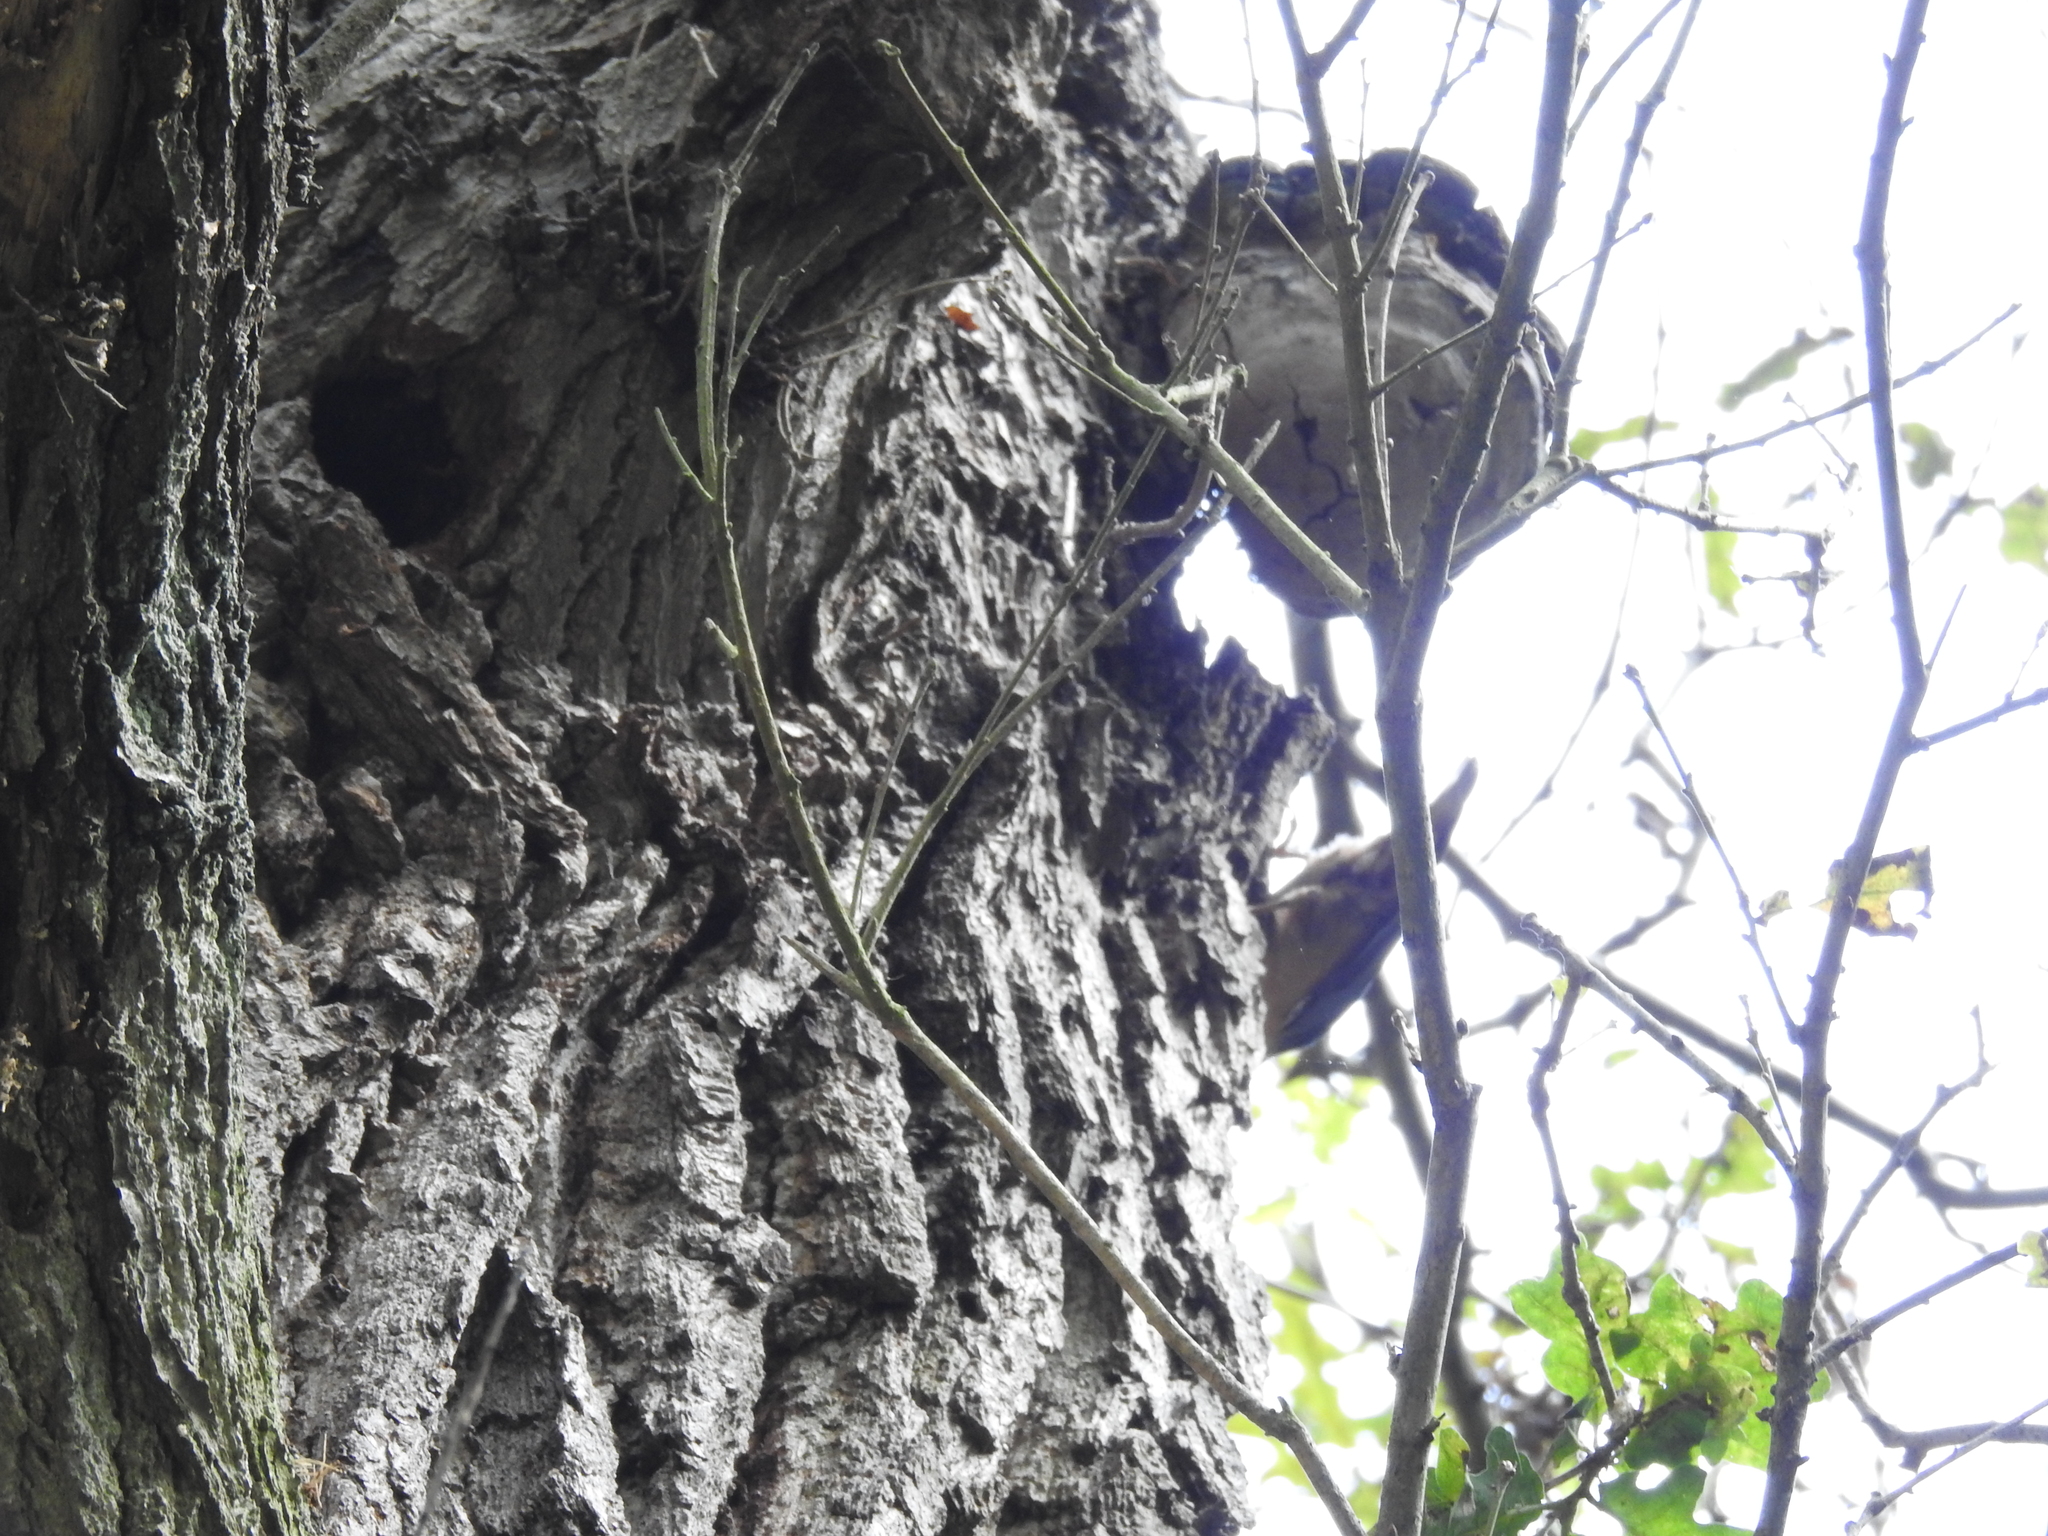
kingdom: Animalia
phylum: Chordata
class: Aves
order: Passeriformes
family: Sittidae
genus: Sitta
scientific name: Sitta europaea
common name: Eurasian nuthatch
